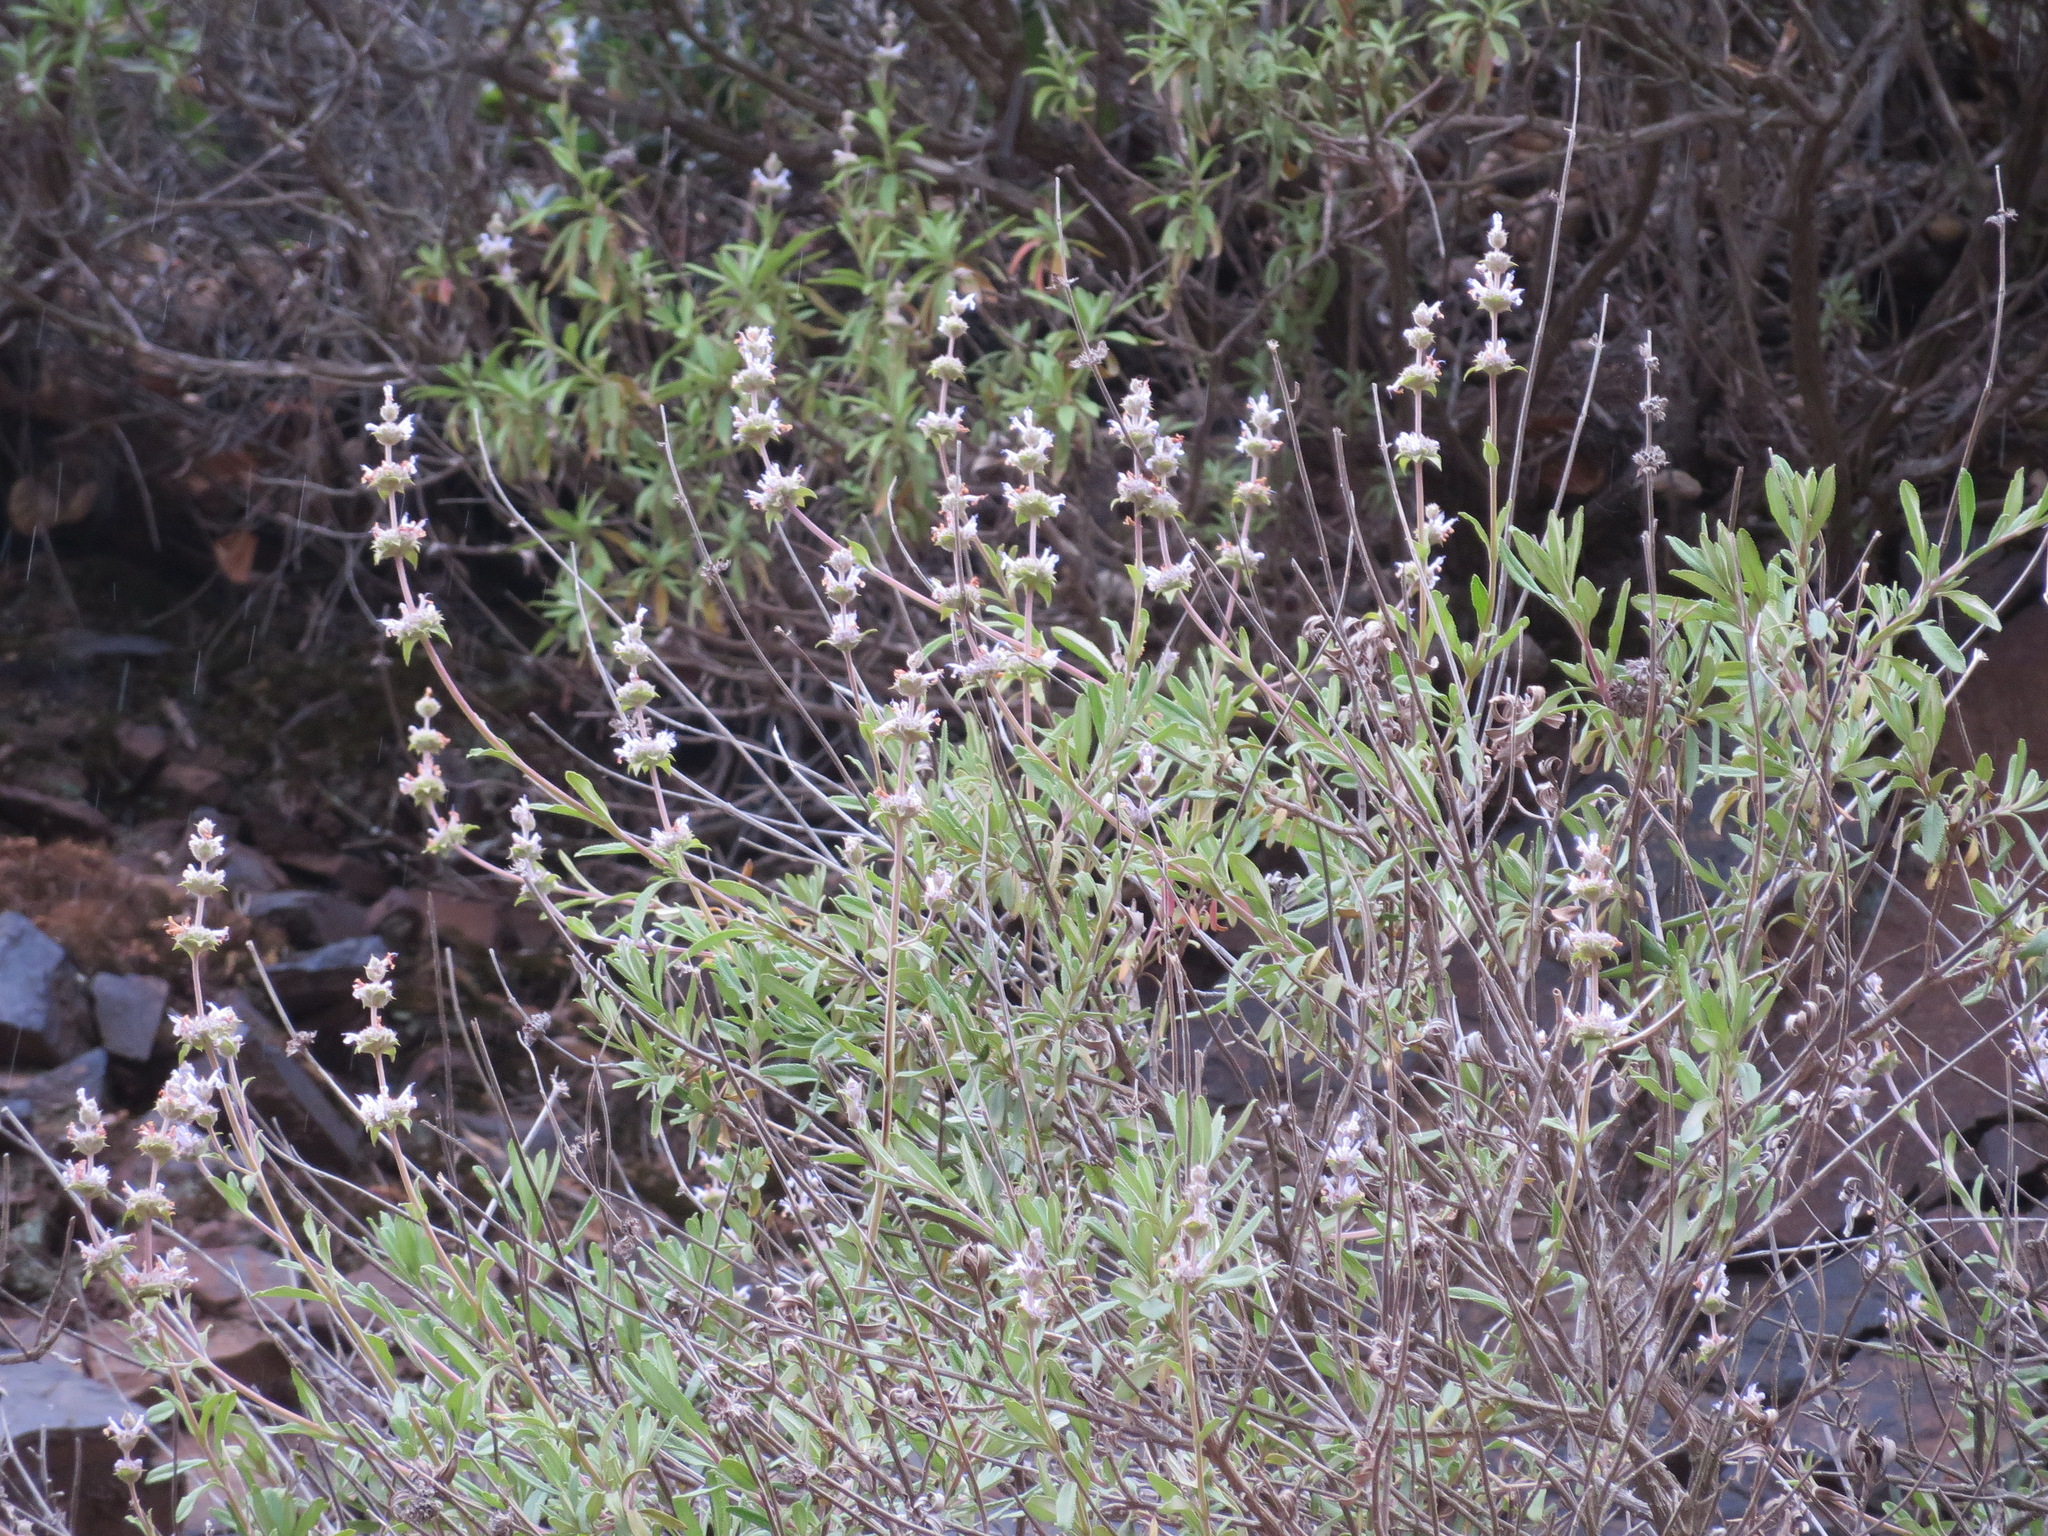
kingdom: Plantae
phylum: Tracheophyta
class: Magnoliopsida
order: Lamiales
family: Lamiaceae
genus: Salvia
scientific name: Salvia mellifera
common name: Black sage
